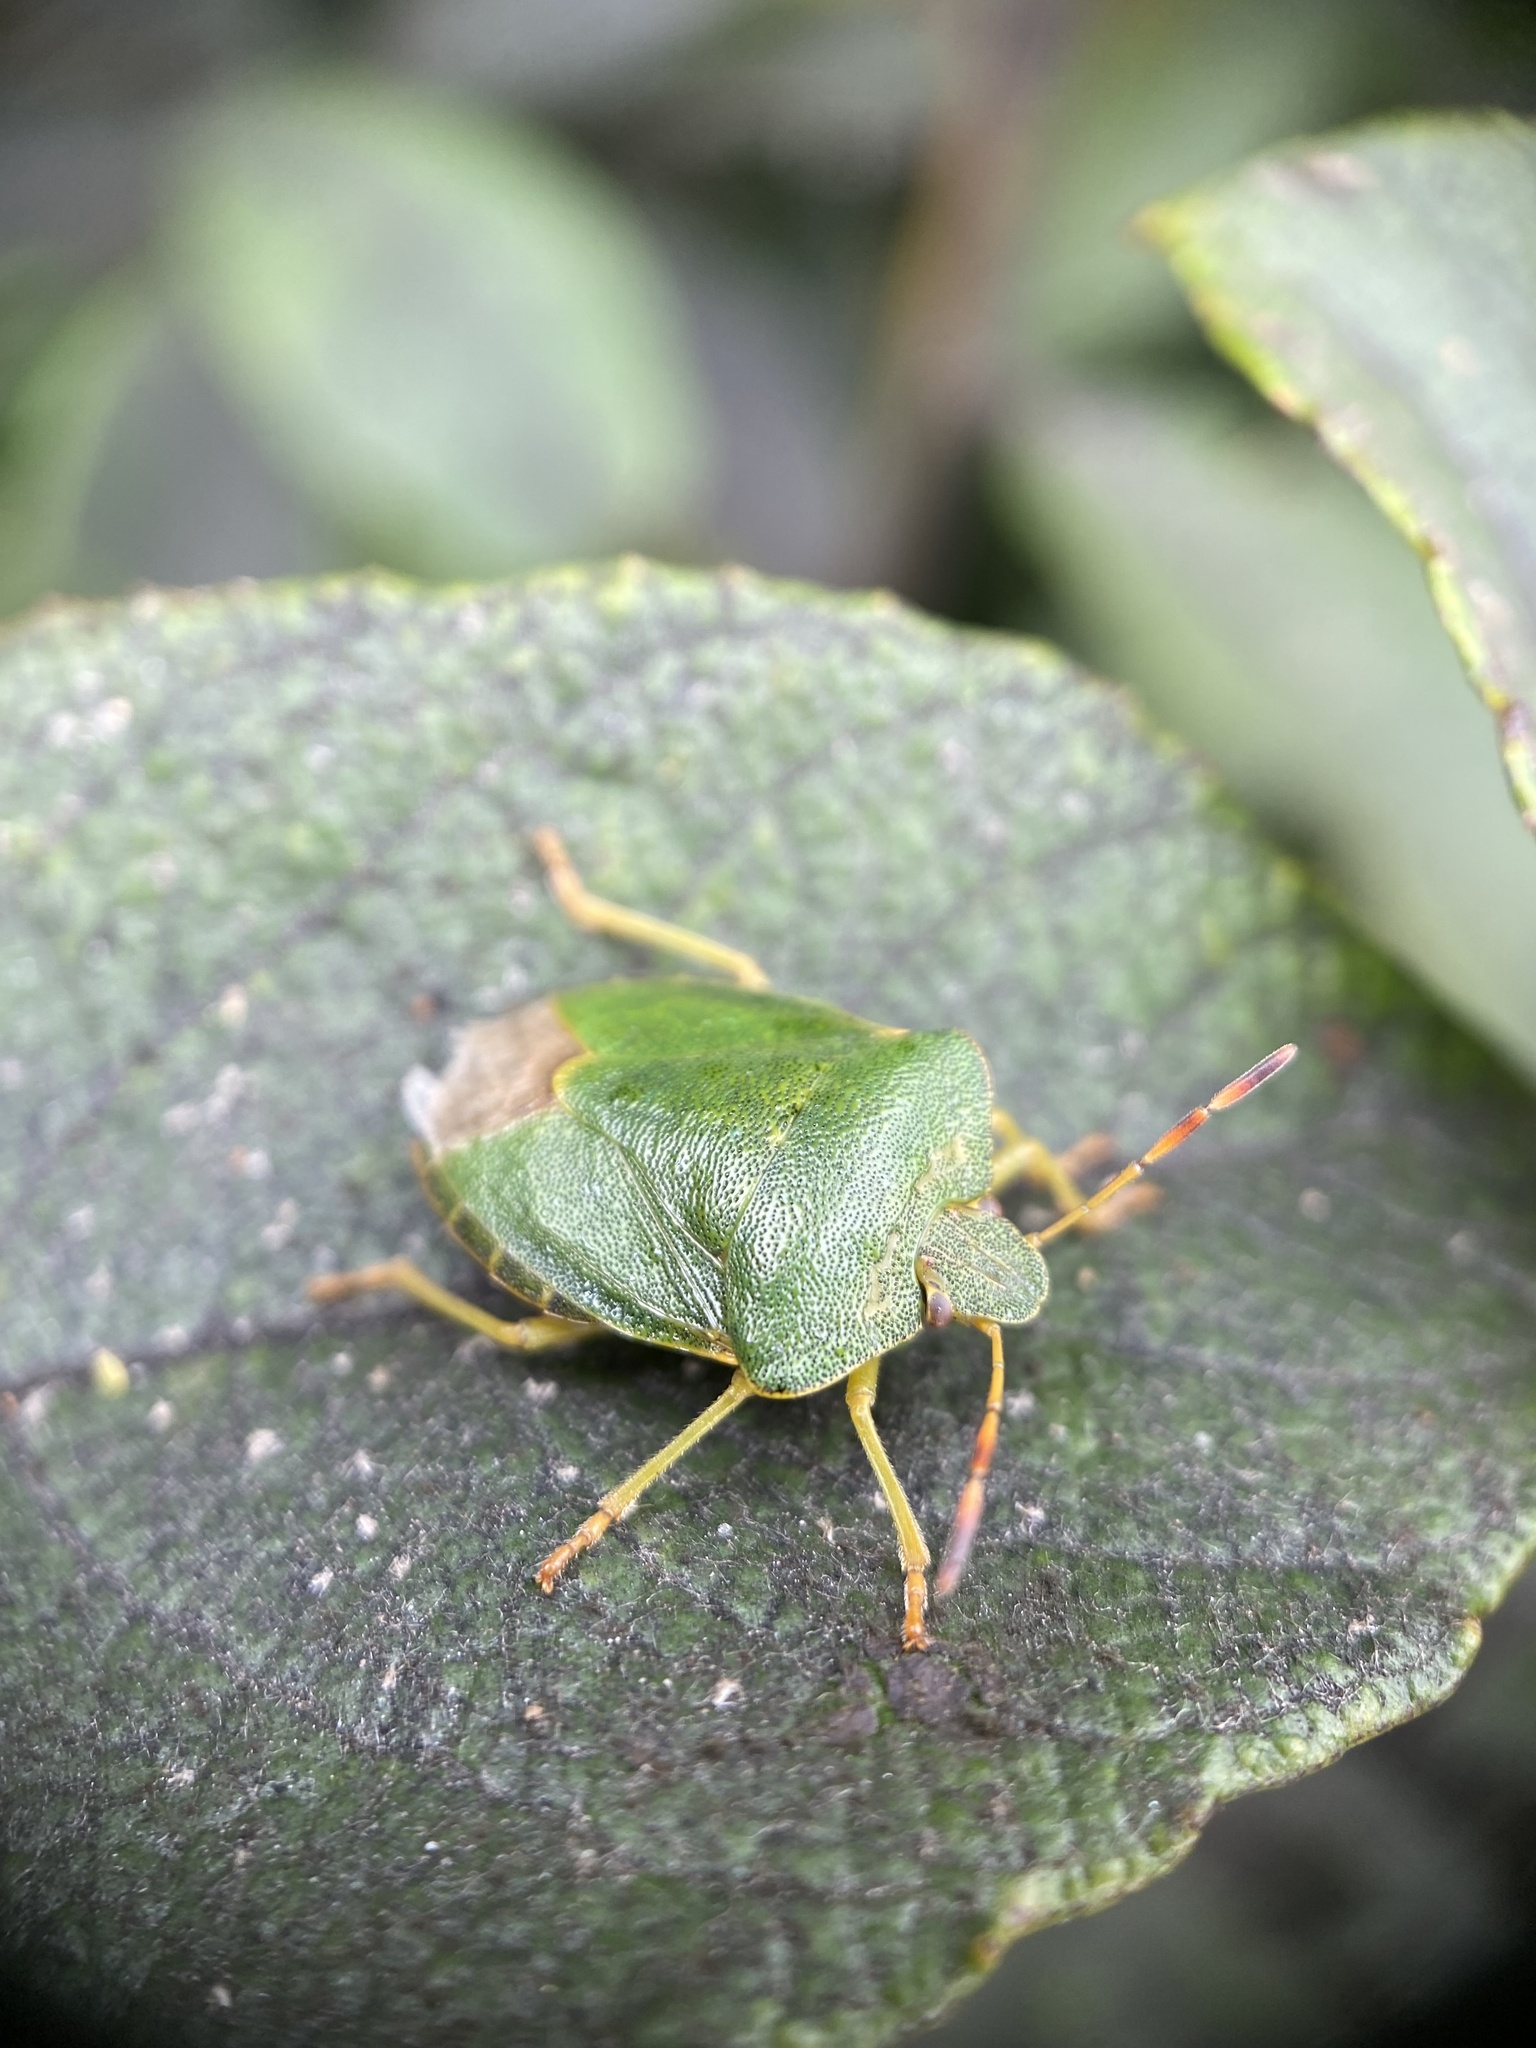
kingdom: Animalia
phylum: Arthropoda
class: Insecta
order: Hemiptera
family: Pentatomidae
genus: Palomena
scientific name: Palomena prasina
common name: Green shieldbug
